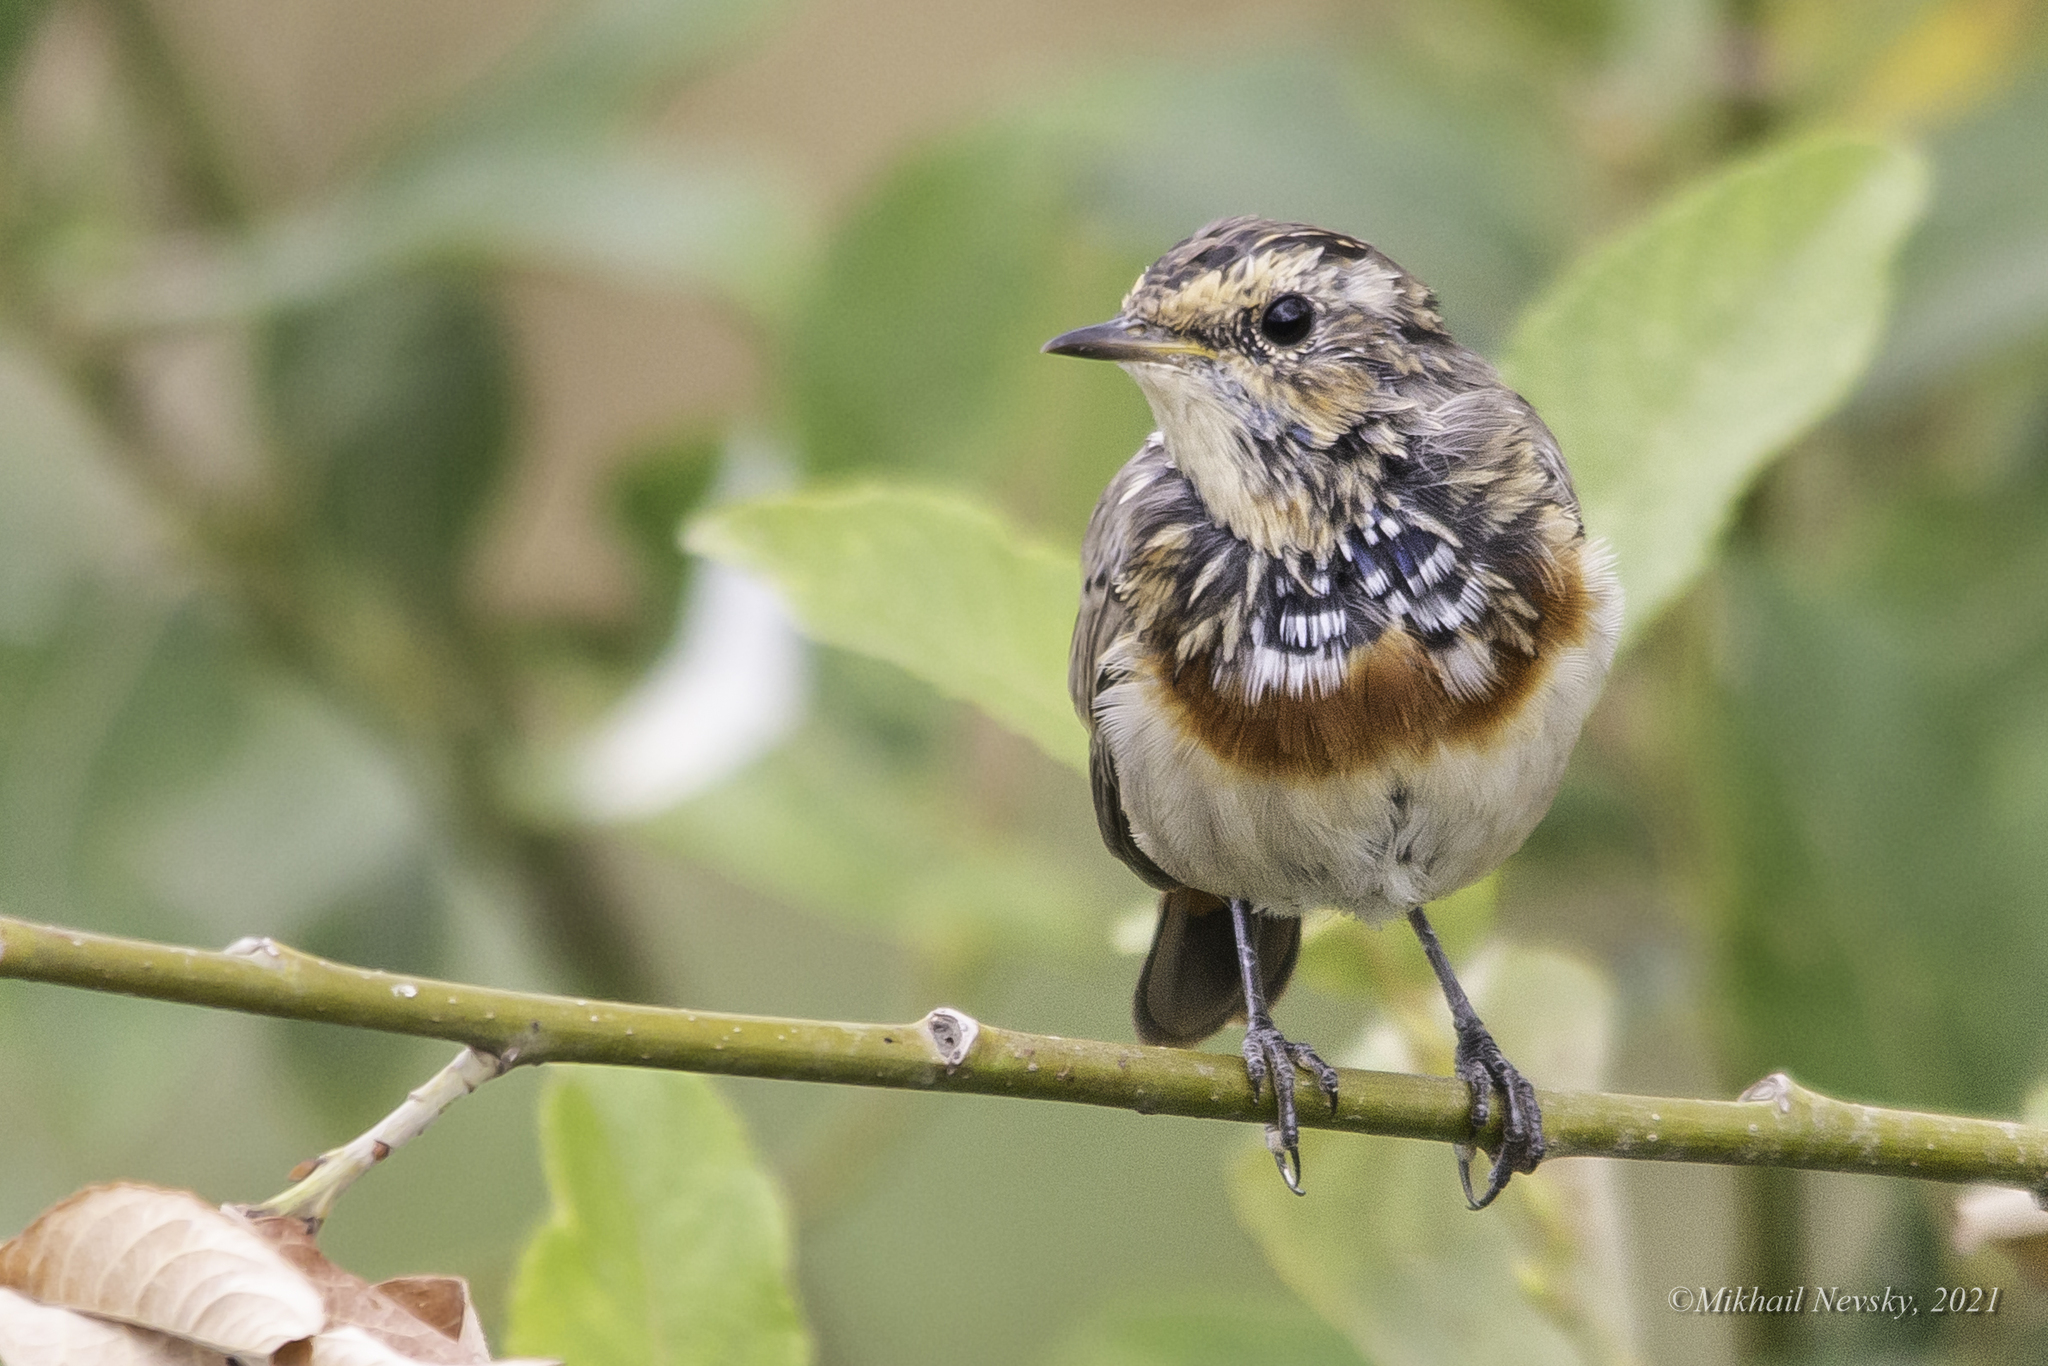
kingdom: Animalia
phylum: Chordata
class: Aves
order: Passeriformes
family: Muscicapidae
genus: Luscinia
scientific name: Luscinia svecica
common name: Bluethroat
